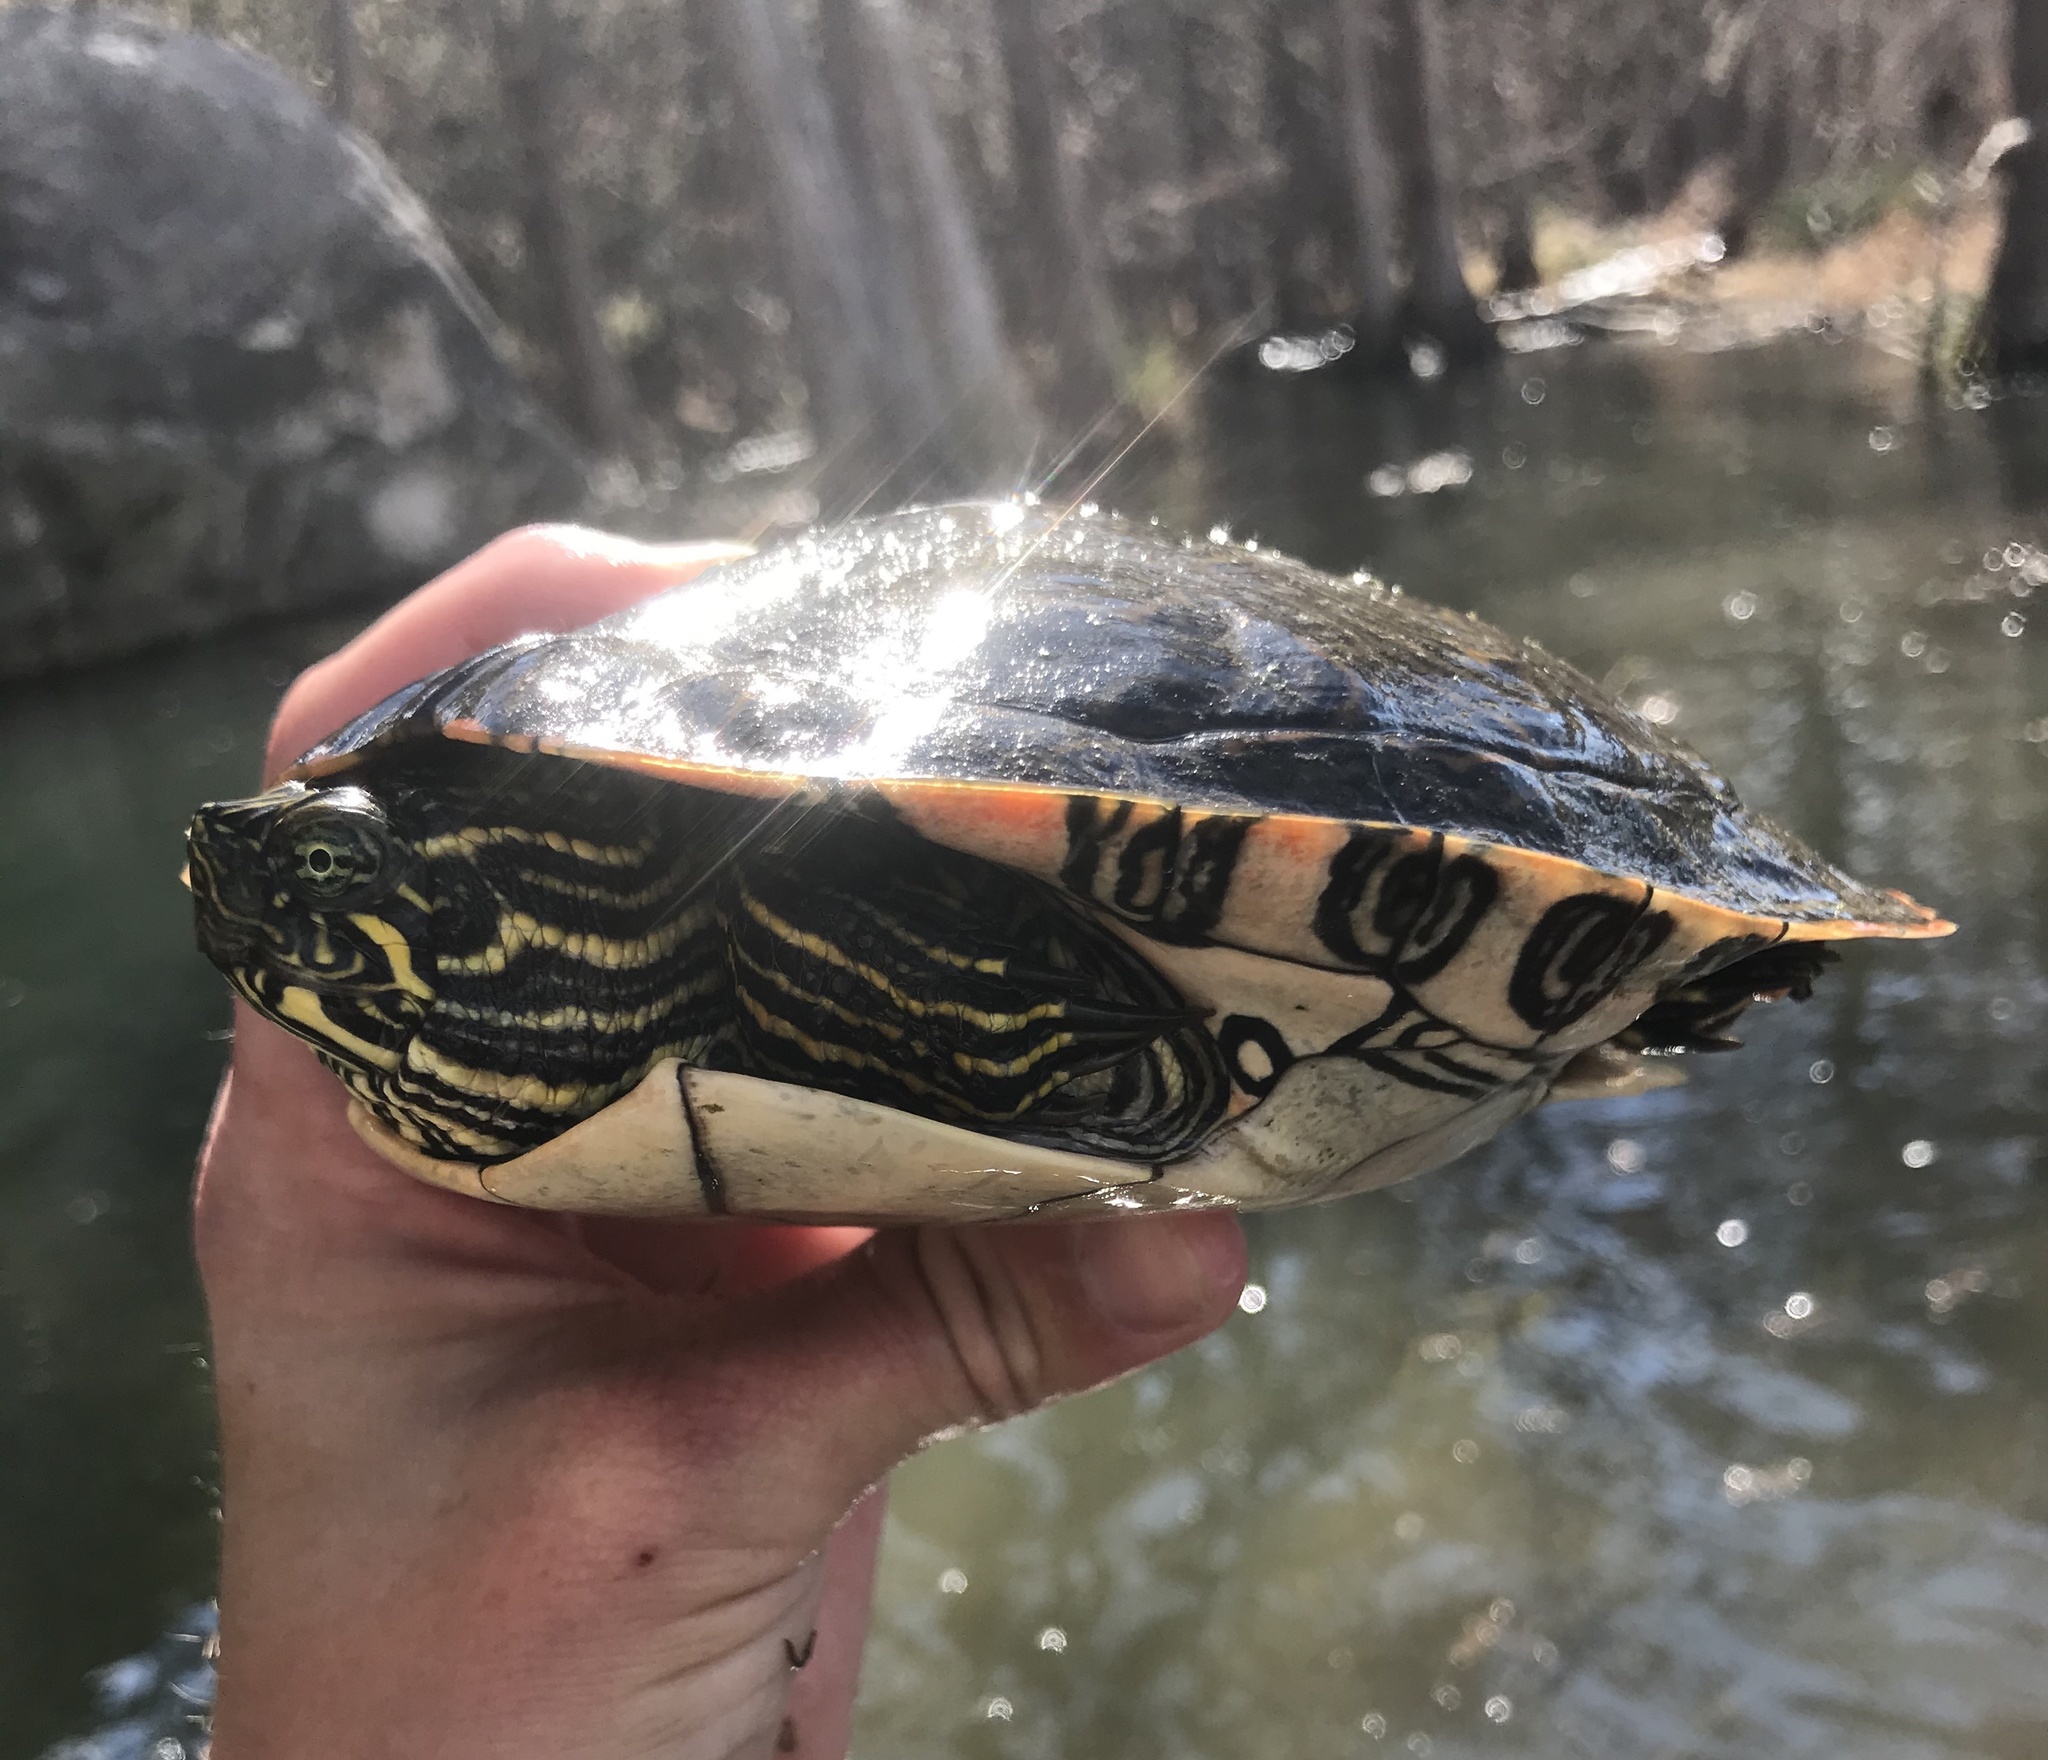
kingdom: Animalia
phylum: Chordata
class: Testudines
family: Emydidae
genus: Pseudemys
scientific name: Pseudemys texana
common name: Texas river cooter
